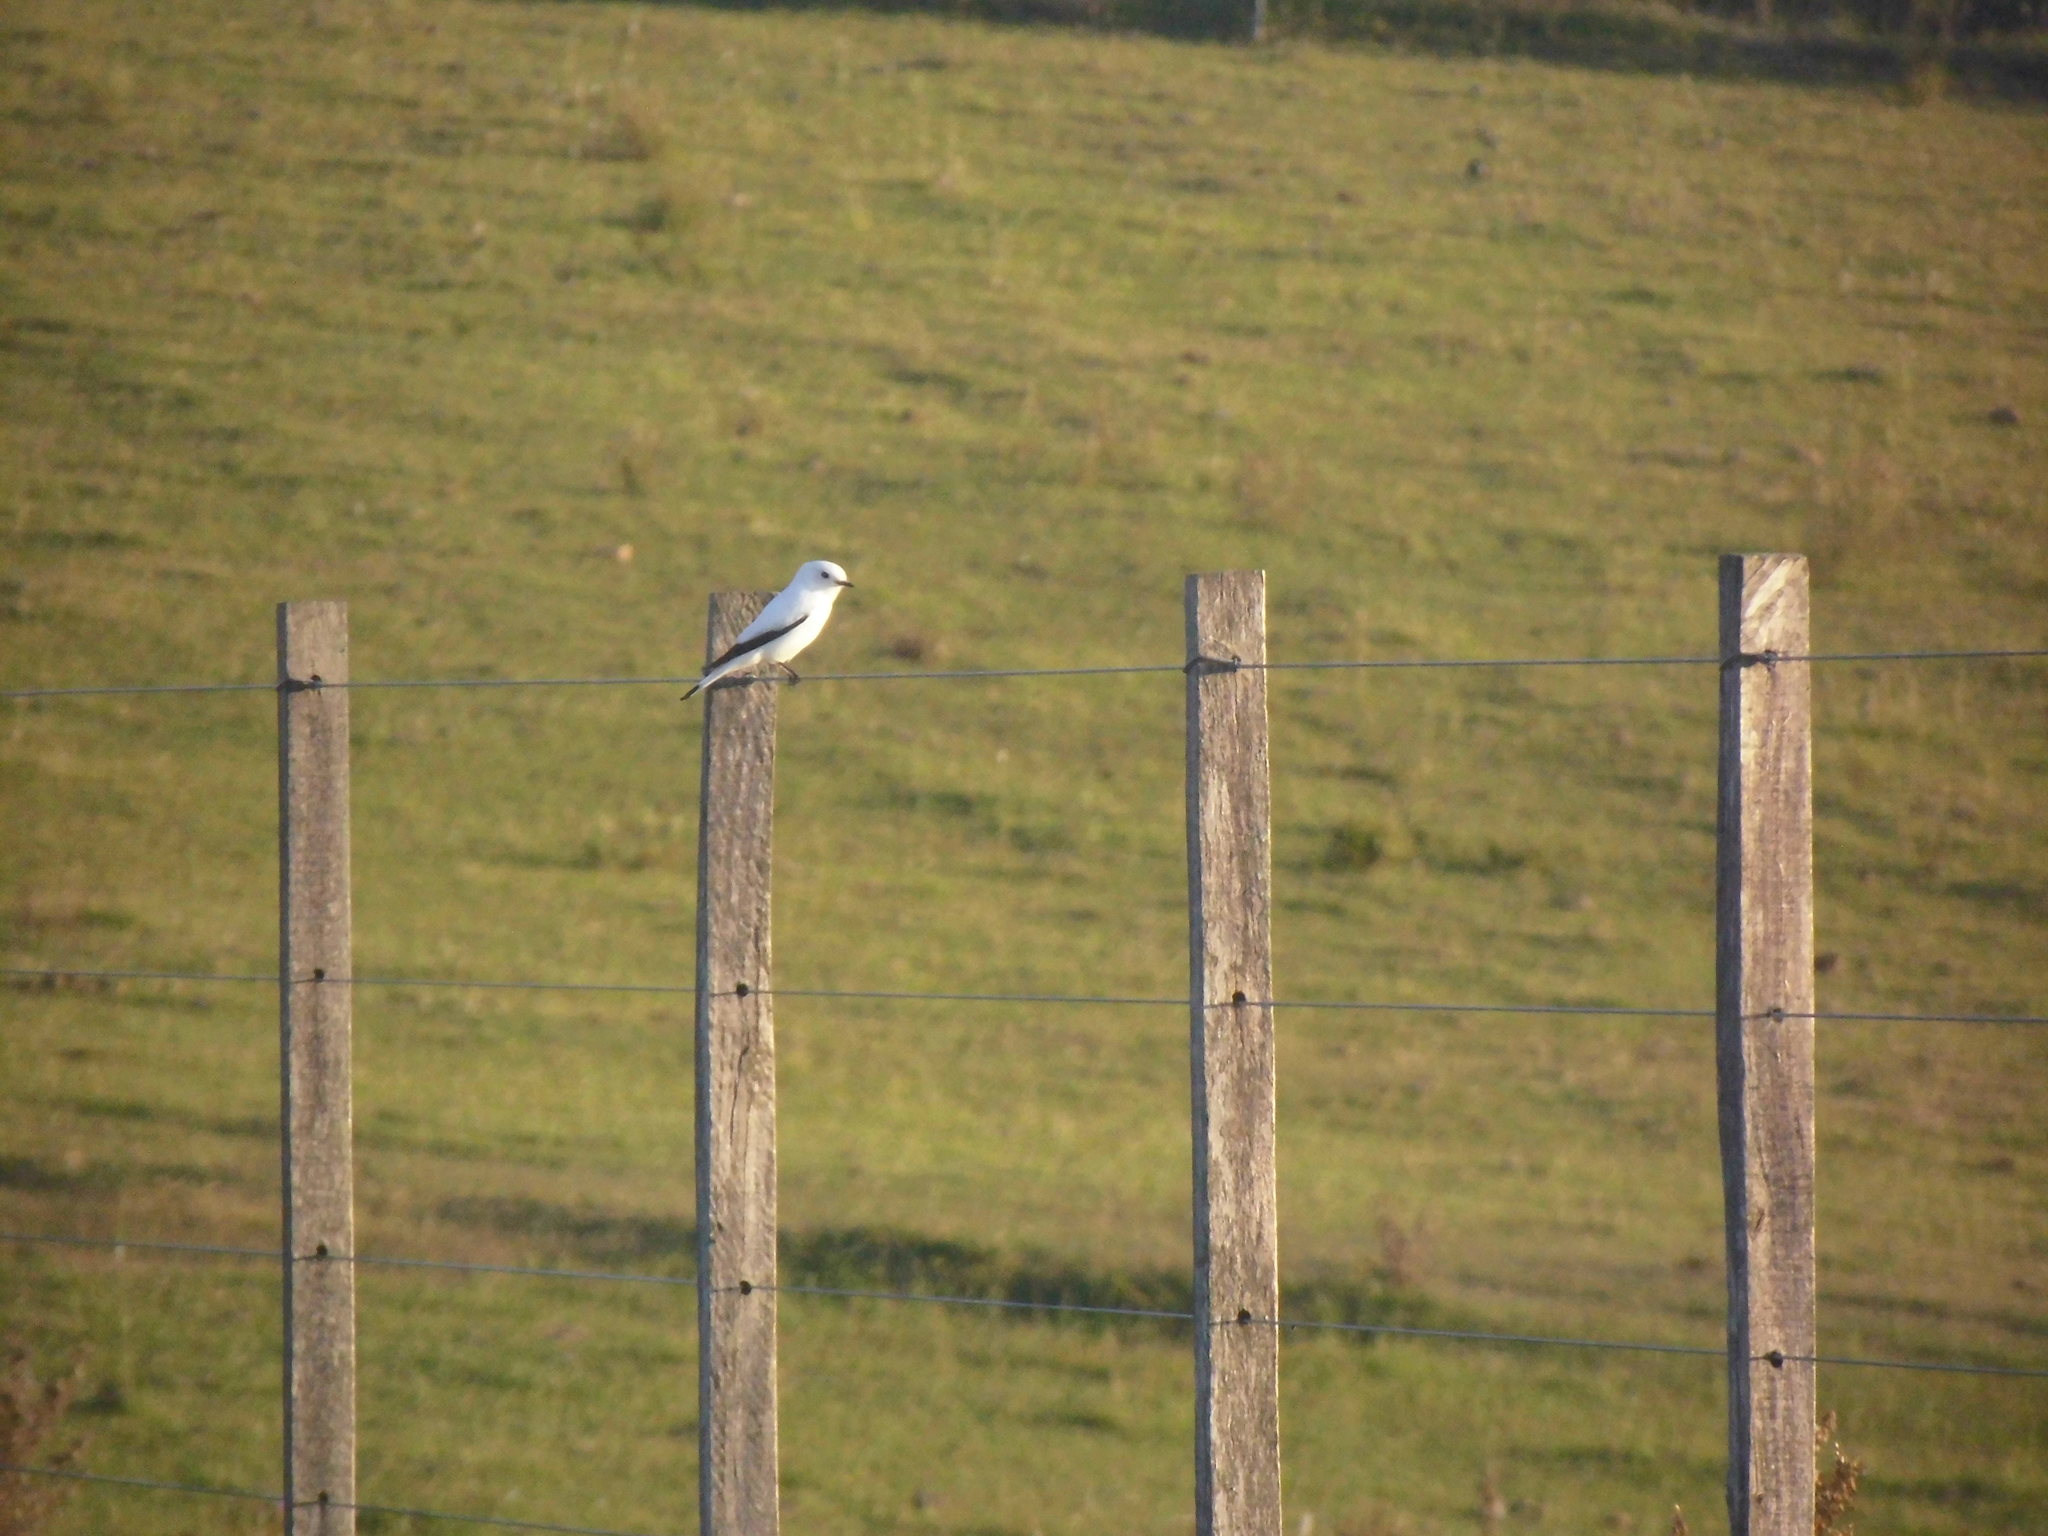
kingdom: Animalia
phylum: Chordata
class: Aves
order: Passeriformes
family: Tyrannidae
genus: Xolmis
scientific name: Xolmis irupero
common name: White monjita
